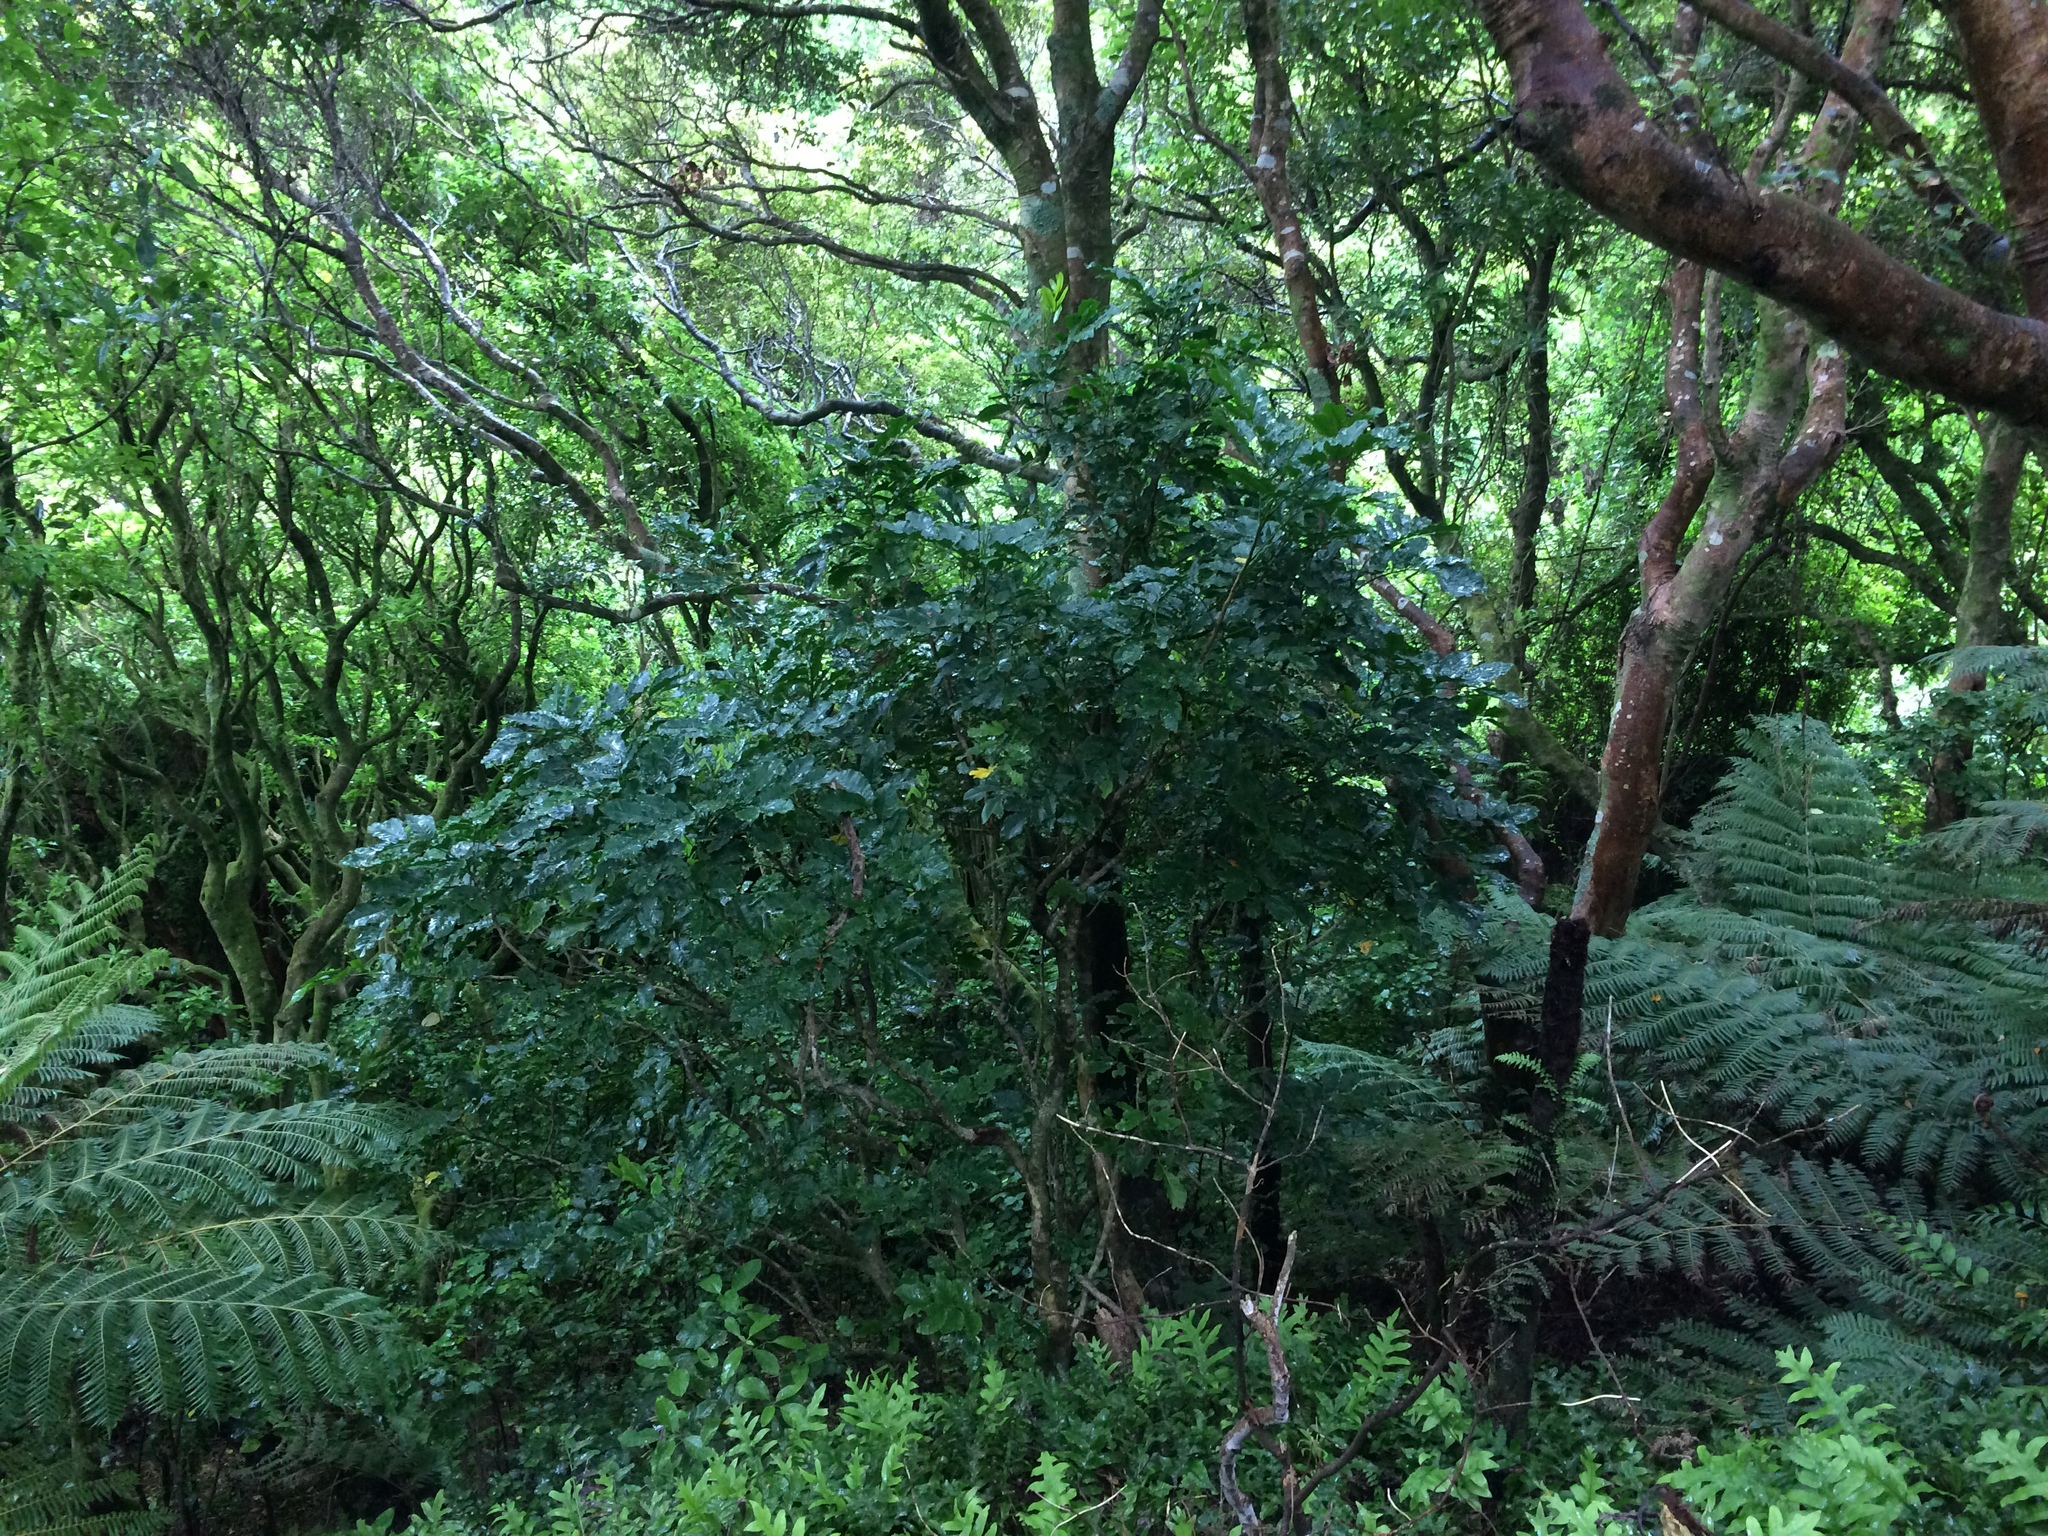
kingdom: Plantae
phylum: Tracheophyta
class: Magnoliopsida
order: Sapindales
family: Meliaceae
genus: Didymocheton
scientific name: Didymocheton spectabilis
